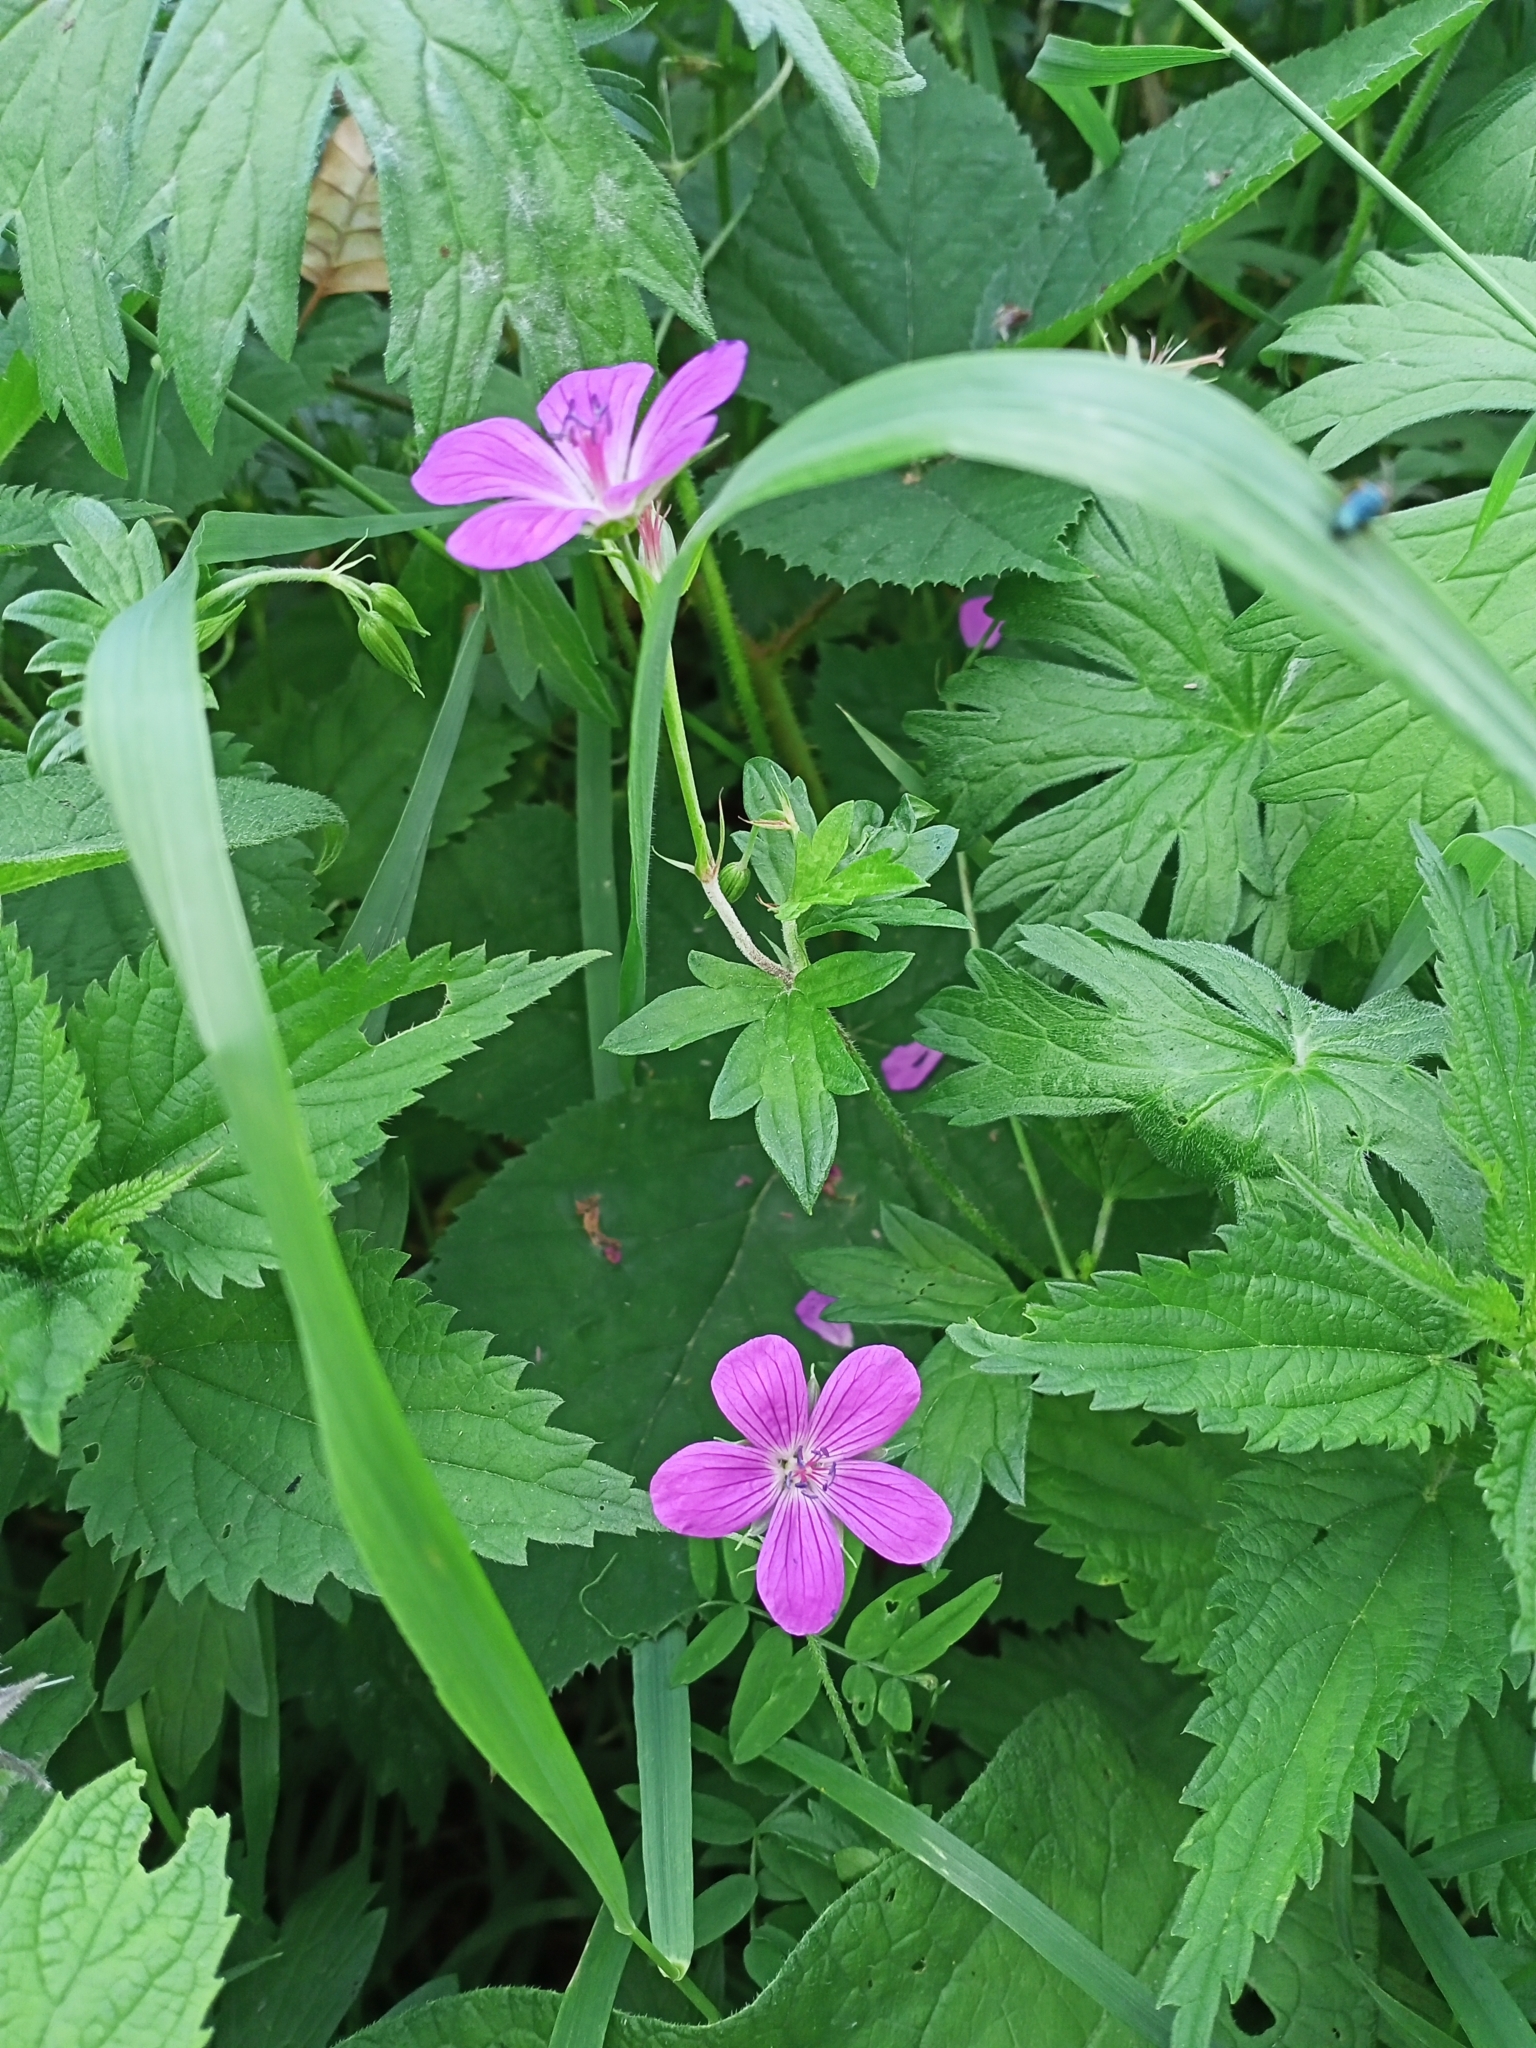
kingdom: Plantae
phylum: Tracheophyta
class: Magnoliopsida
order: Geraniales
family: Geraniaceae
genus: Geranium
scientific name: Geranium palustre
